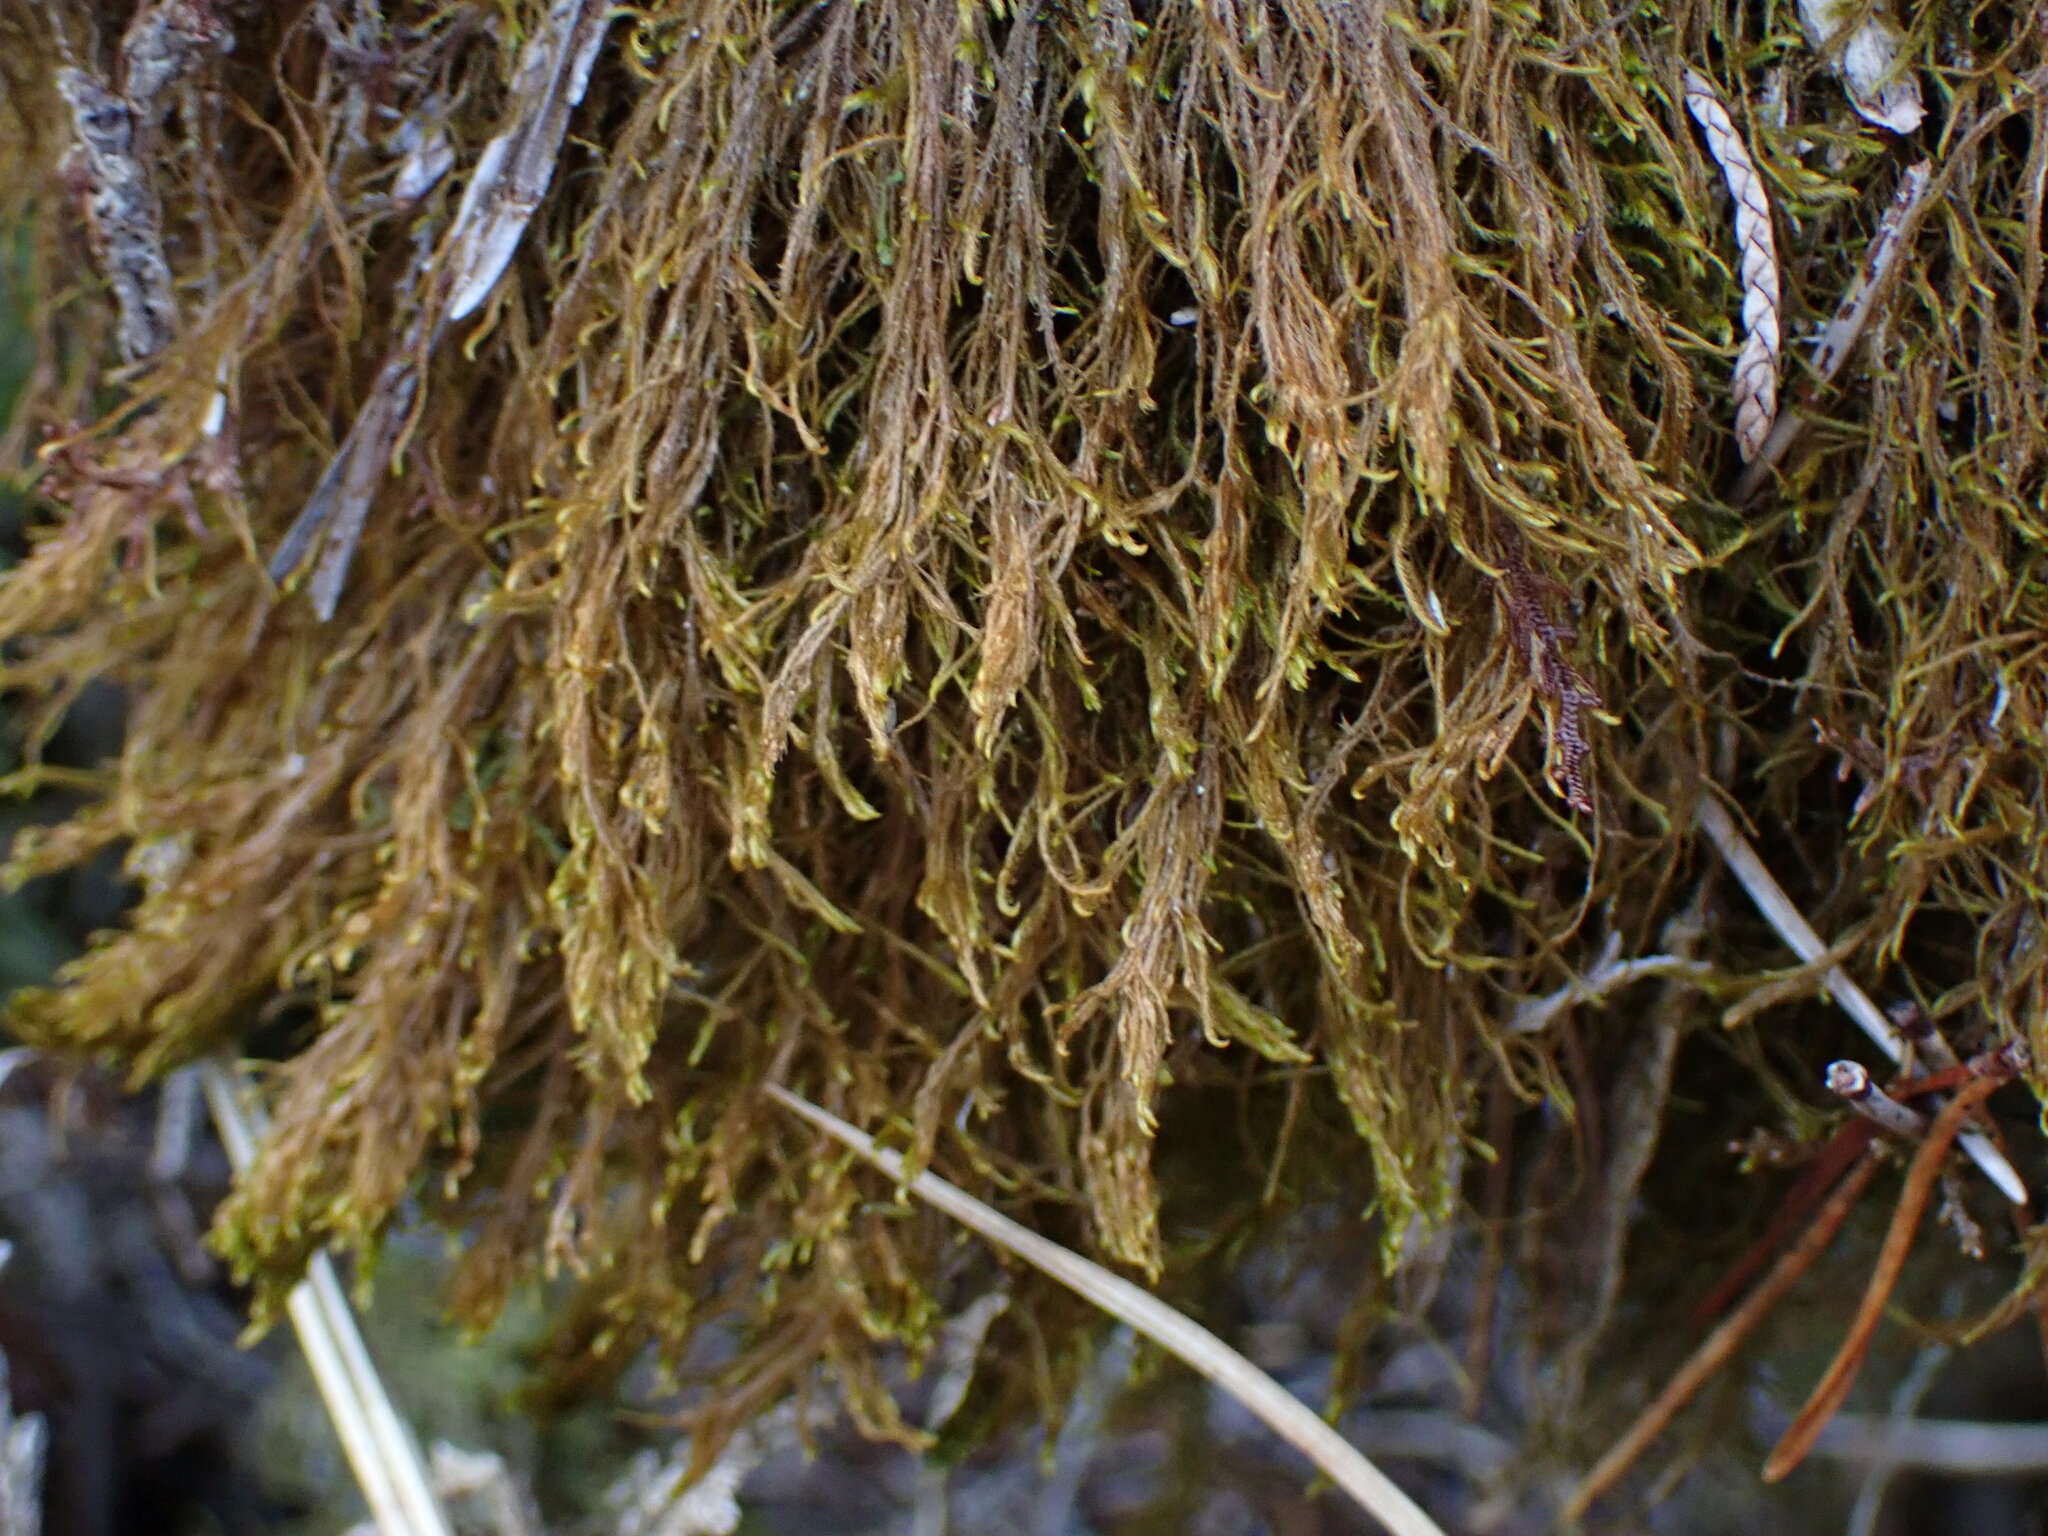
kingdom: Plantae
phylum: Marchantiophyta
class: Jungermanniopsida
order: Jungermanniales
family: Herbertaceae
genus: Herbertus
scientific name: Herbertus aduncus
